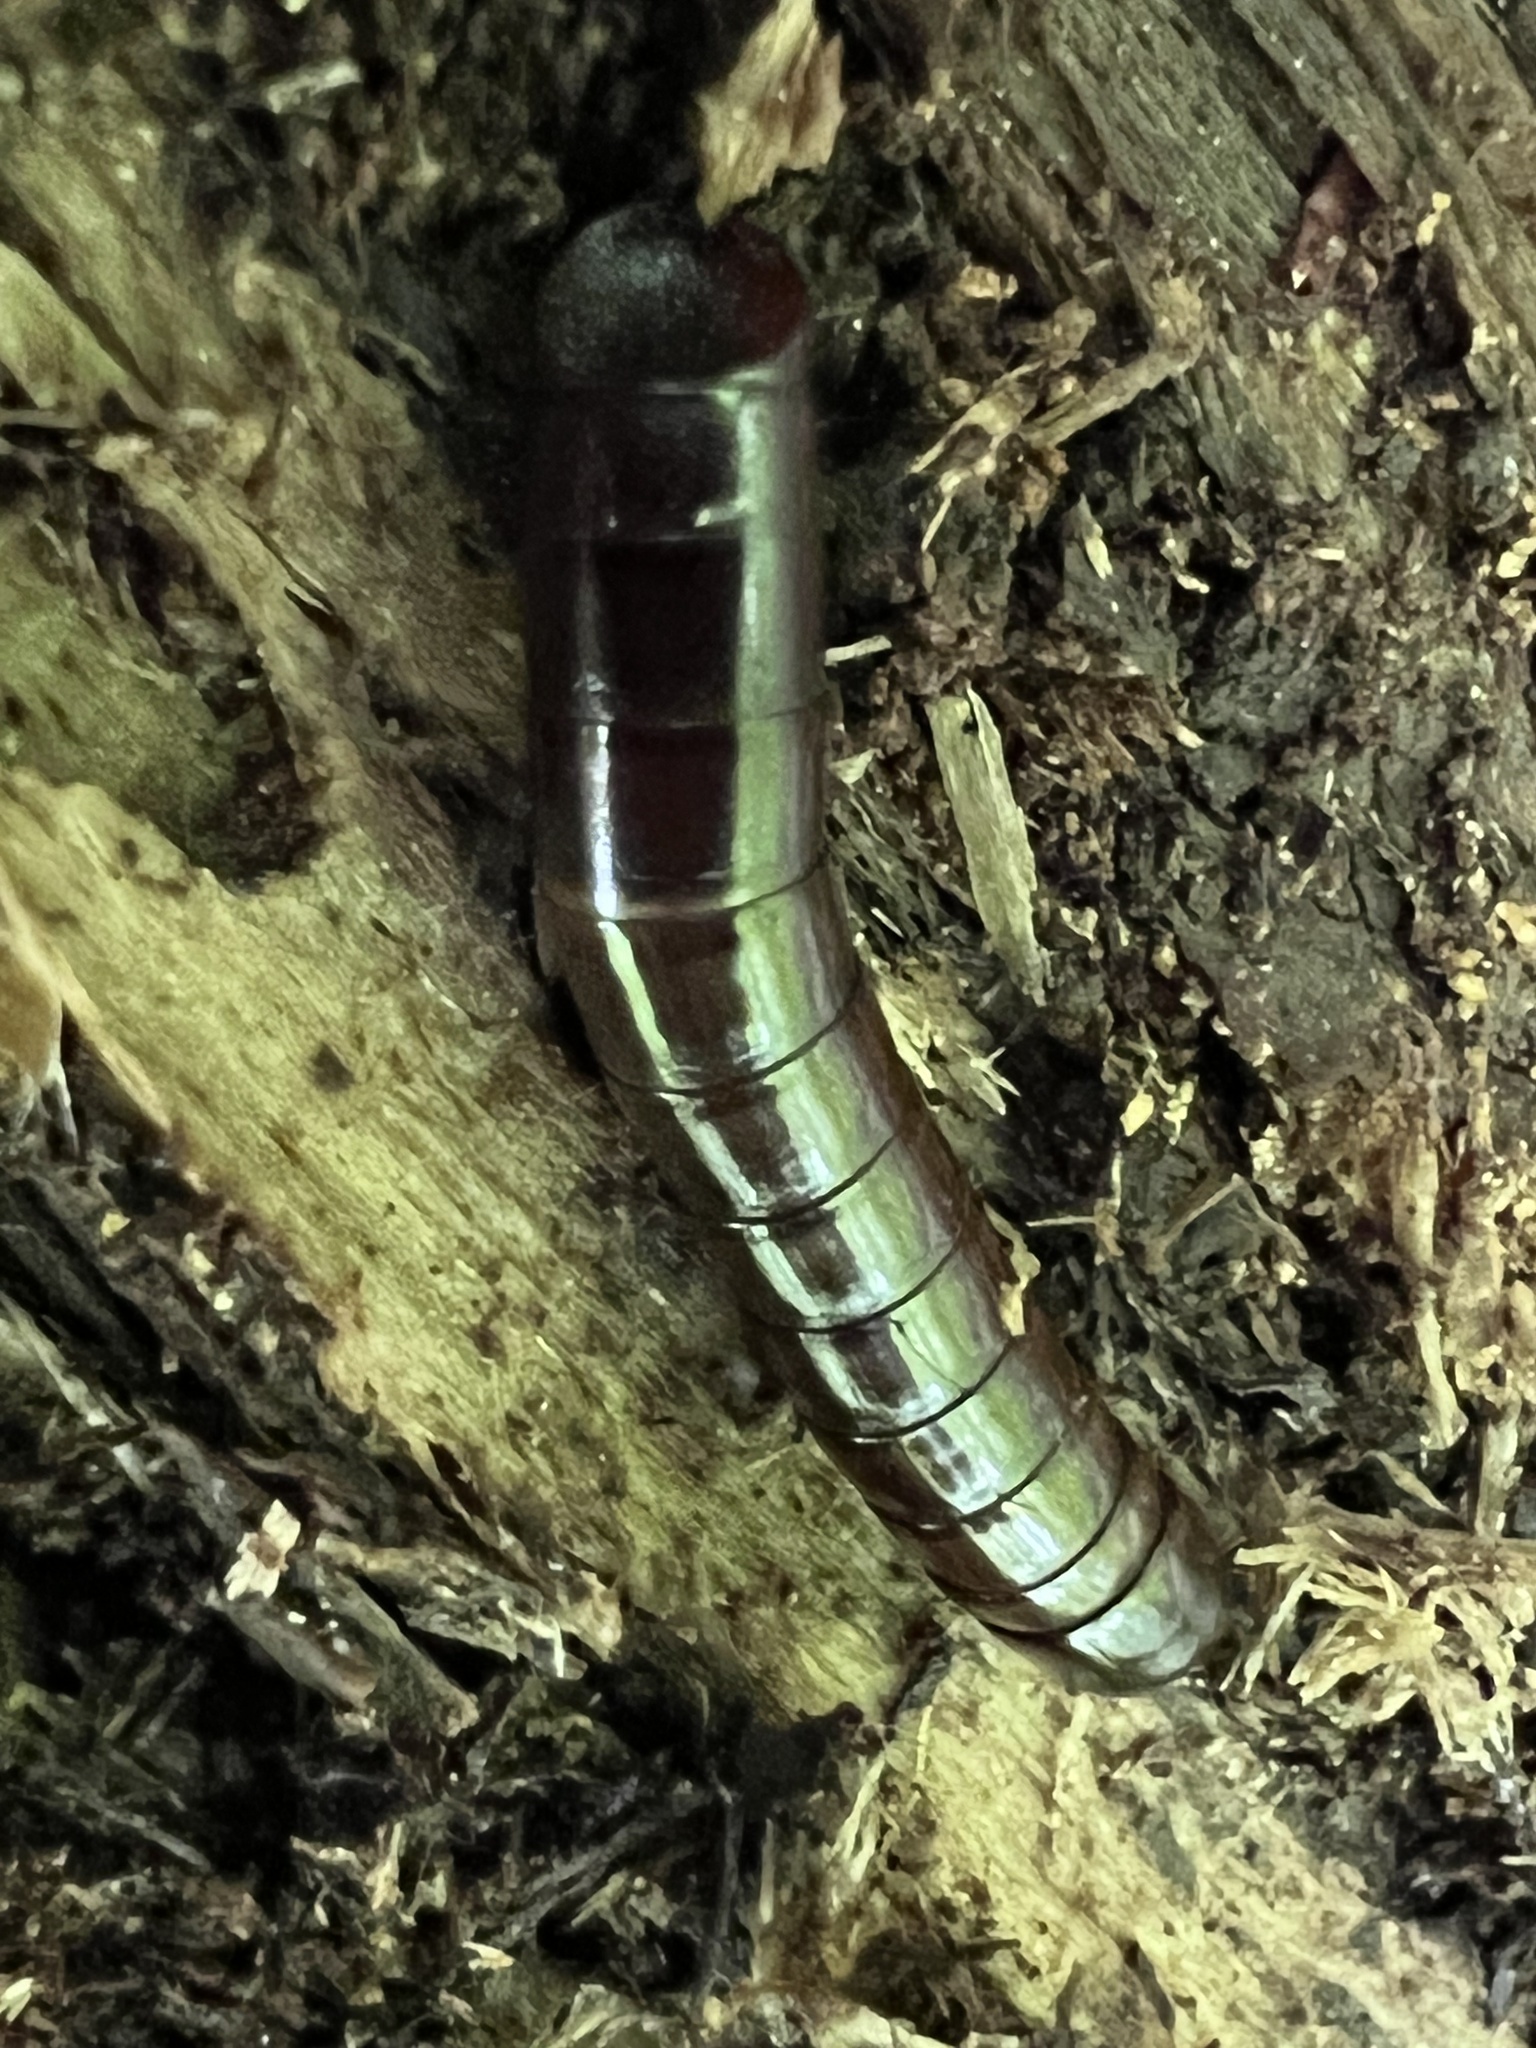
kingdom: Animalia
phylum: Arthropoda
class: Insecta
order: Coleoptera
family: Tenebrionidae
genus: Meracantha
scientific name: Meracantha contracta
